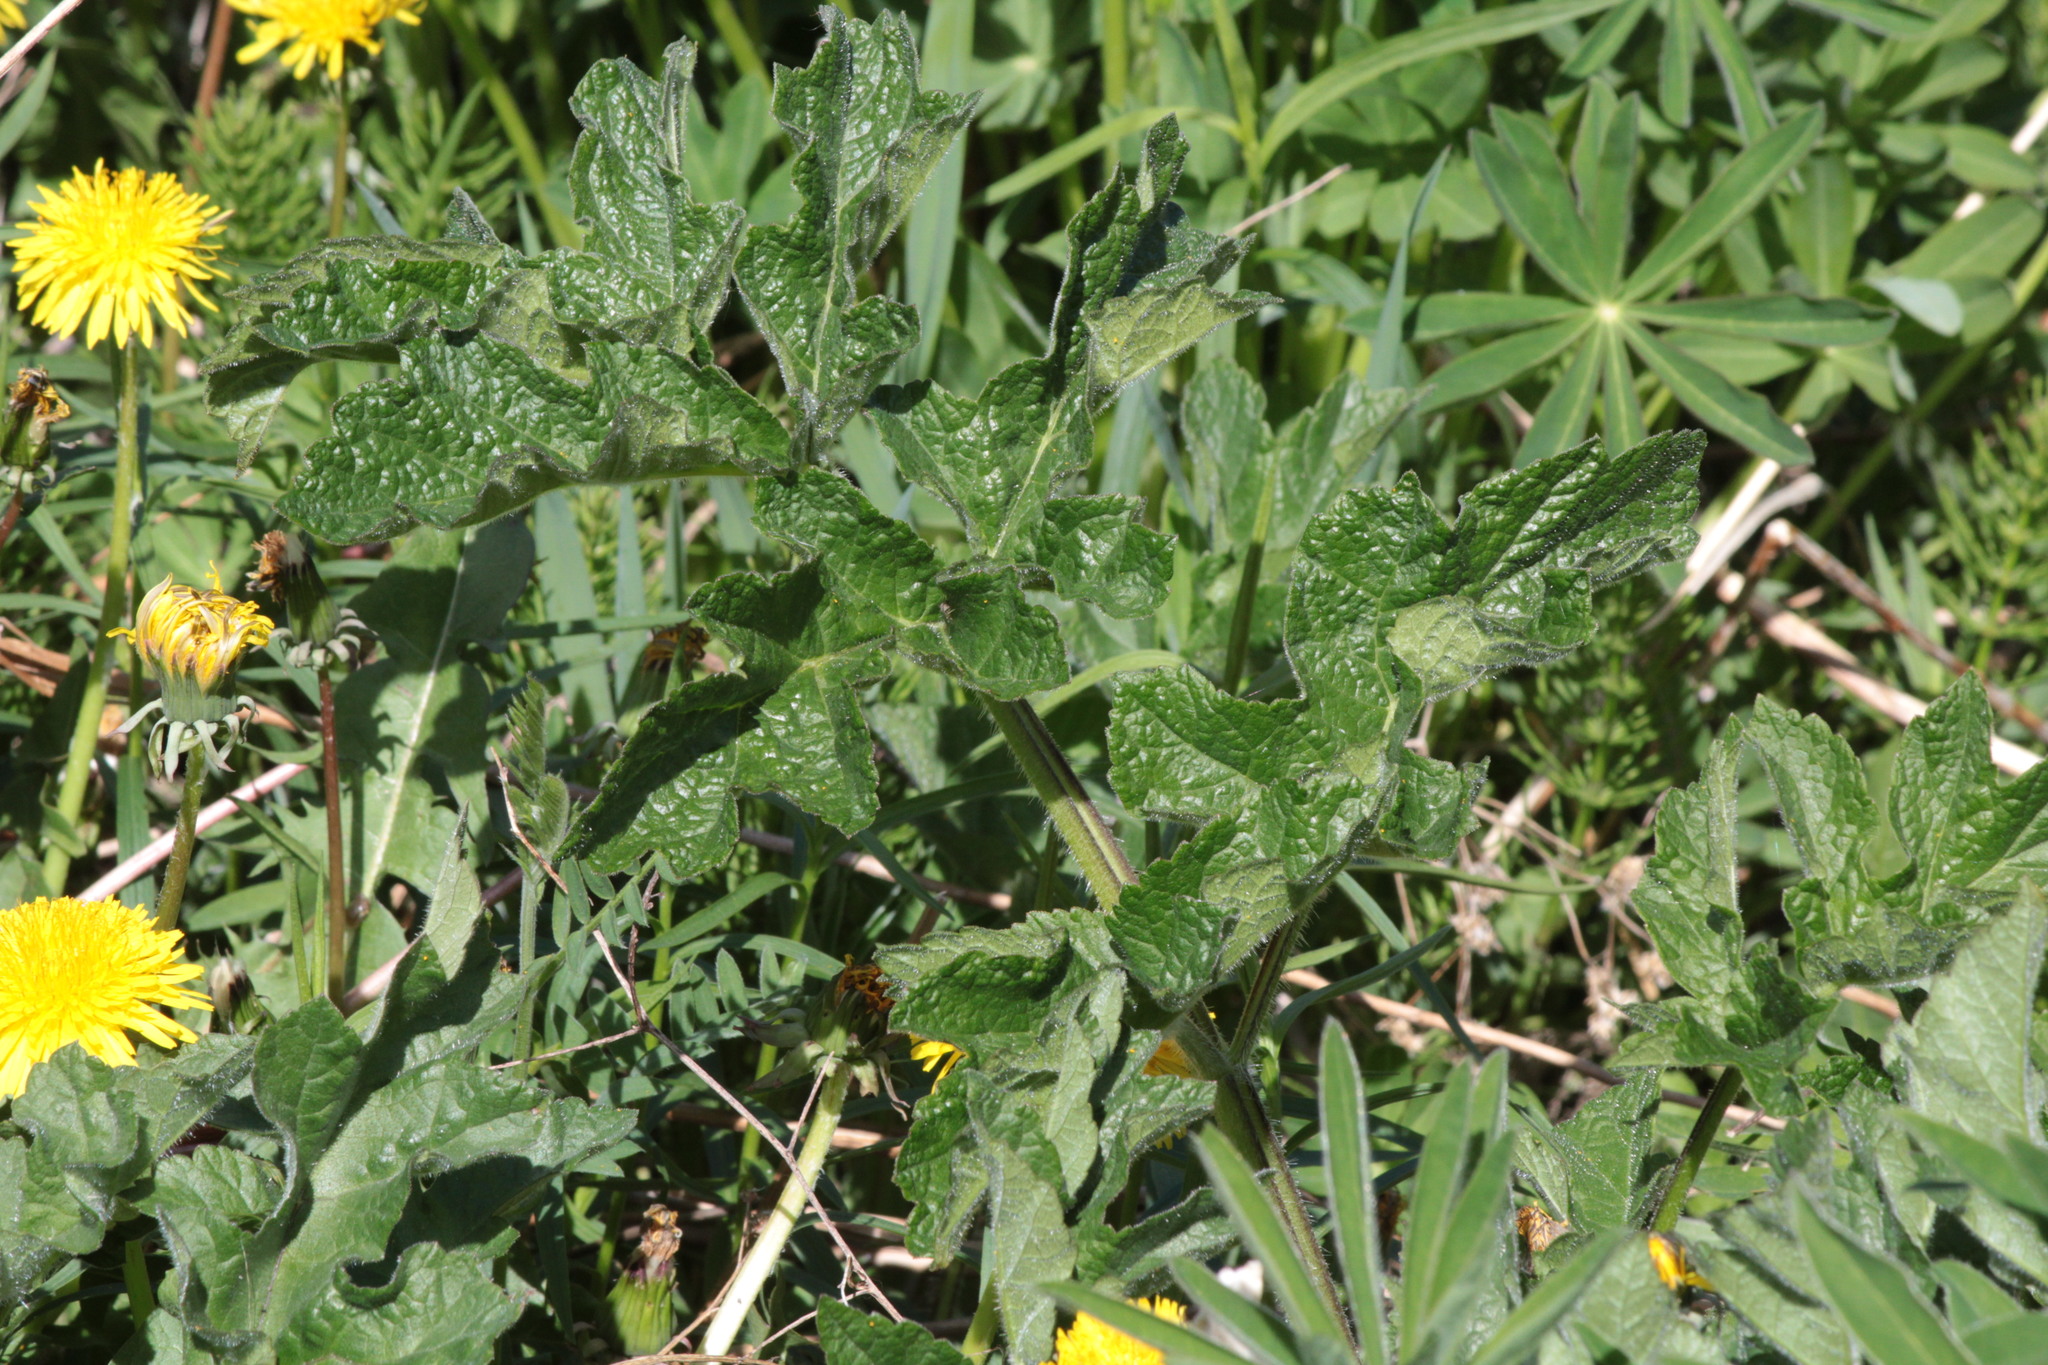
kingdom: Plantae
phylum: Tracheophyta
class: Magnoliopsida
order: Apiales
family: Apiaceae
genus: Heracleum
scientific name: Heracleum sphondylium
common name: Hogweed
